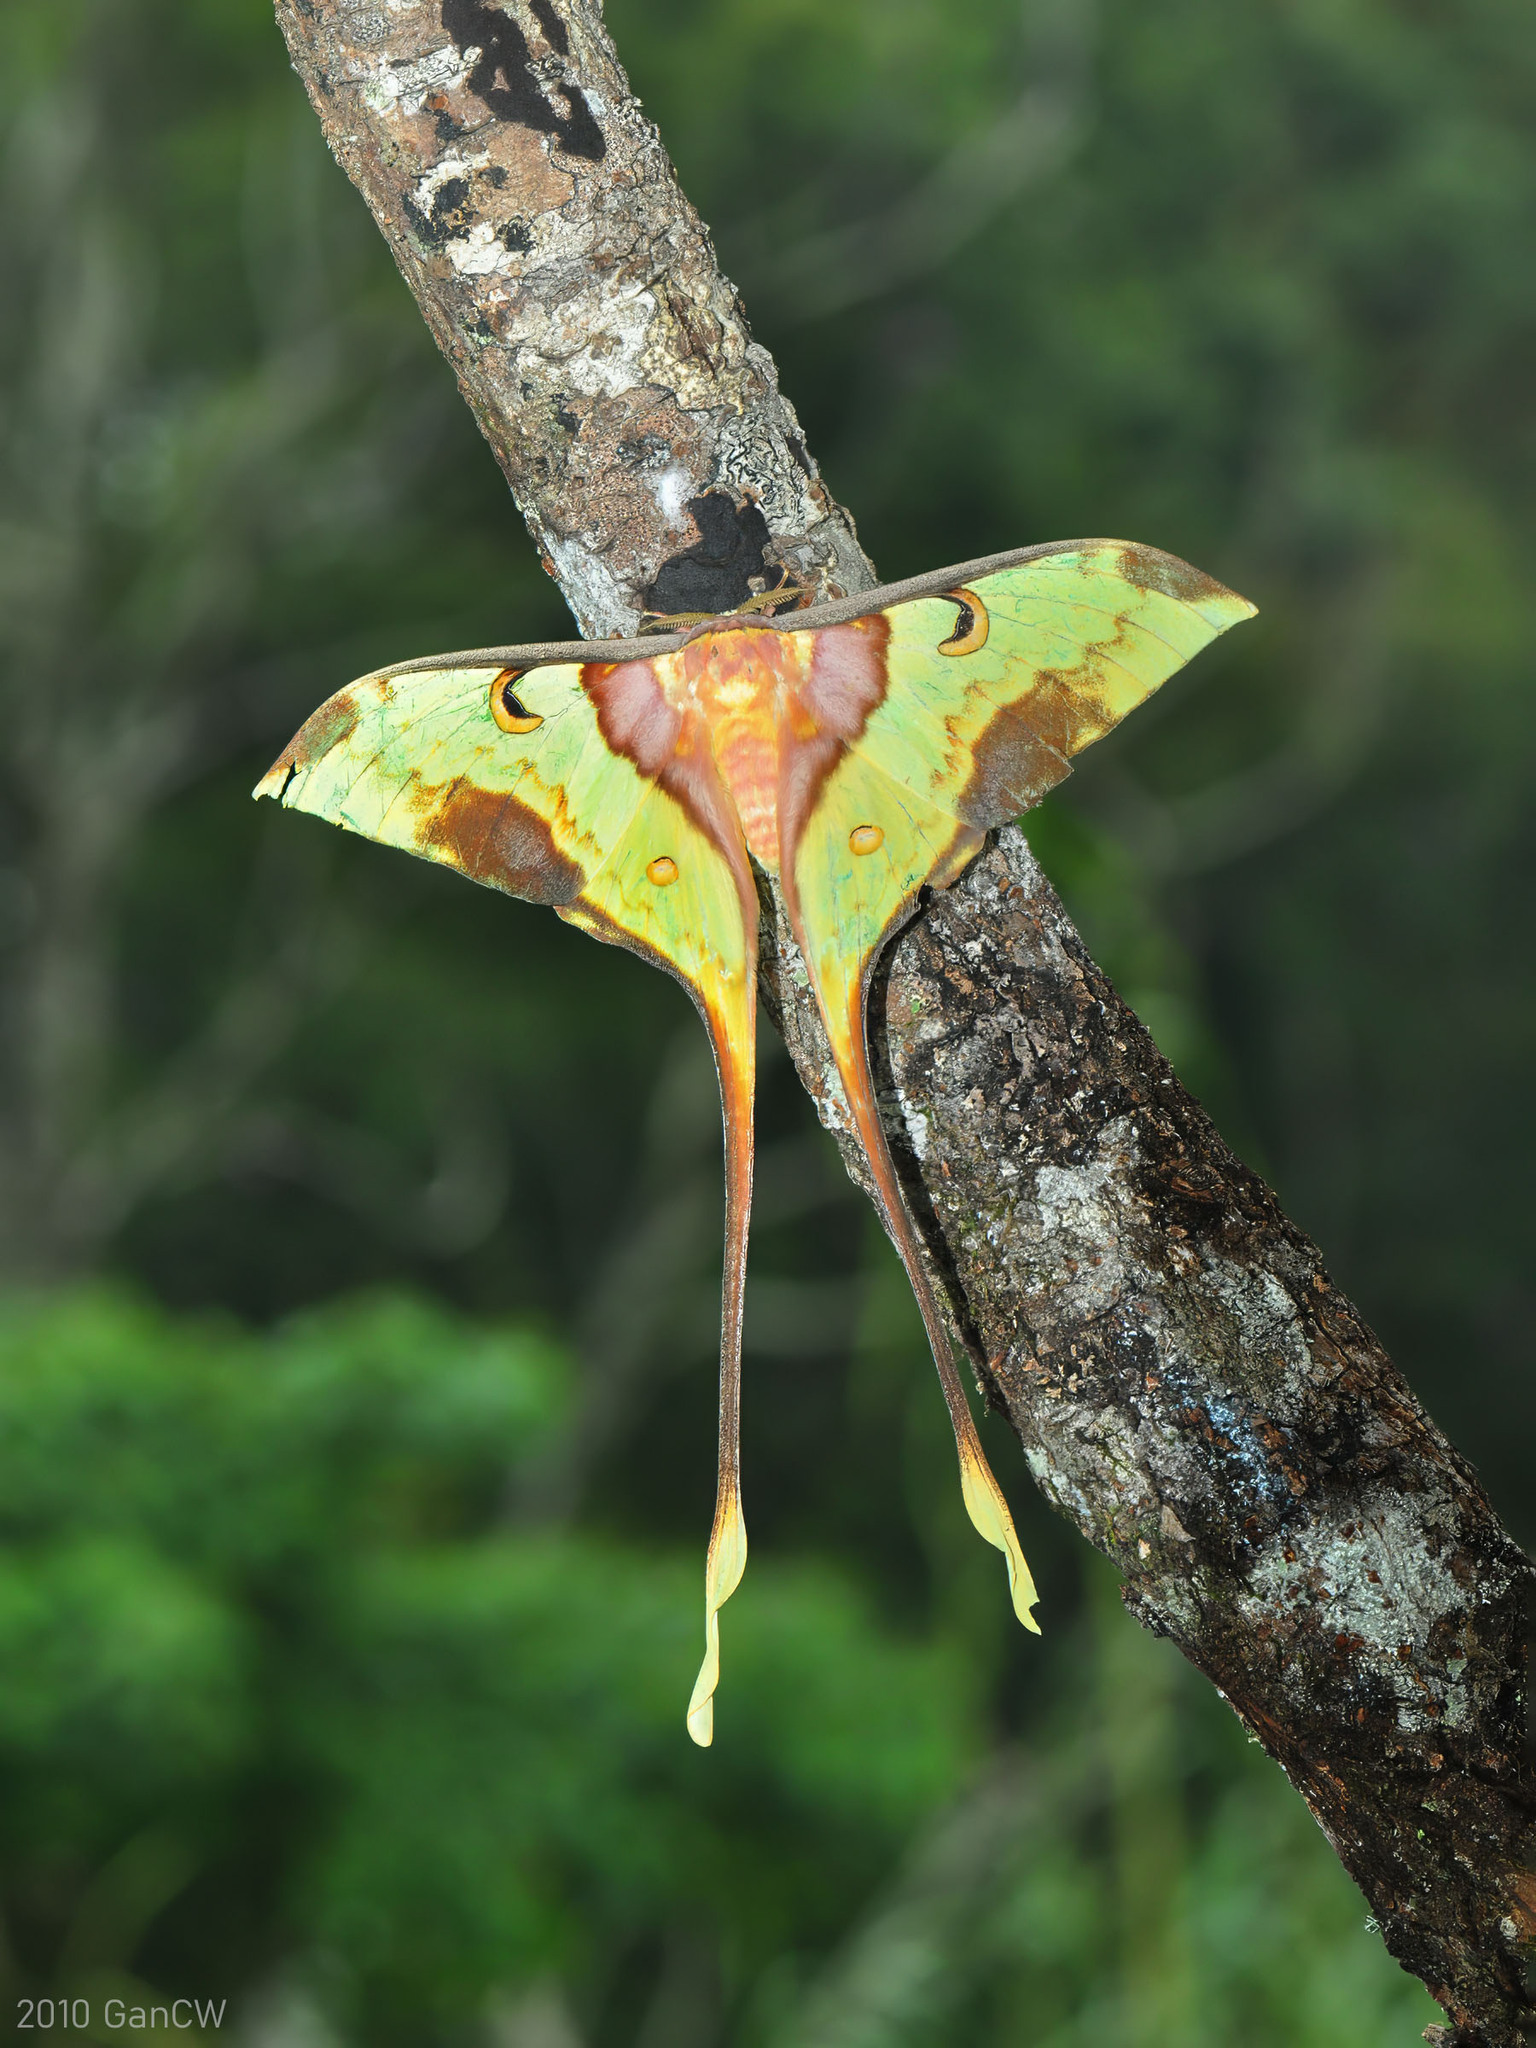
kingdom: Animalia
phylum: Arthropoda
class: Insecta
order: Lepidoptera
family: Saturniidae
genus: Actias
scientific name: Actias maenas
